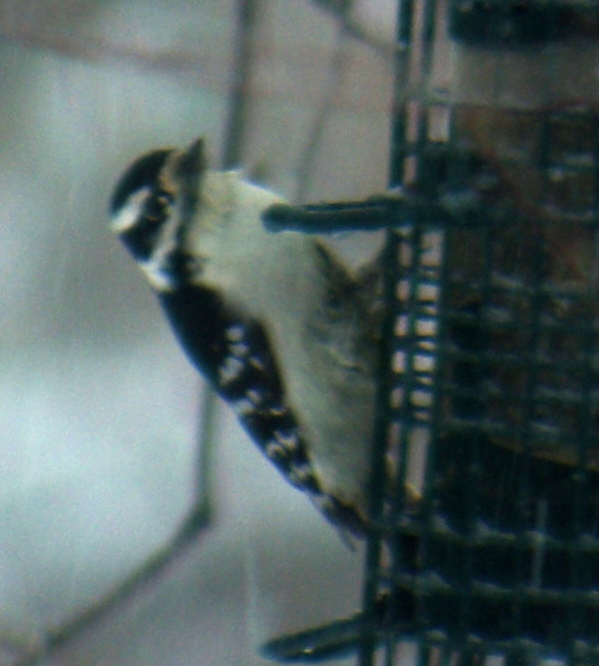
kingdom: Animalia
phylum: Chordata
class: Aves
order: Piciformes
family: Picidae
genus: Dryobates
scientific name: Dryobates pubescens
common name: Downy woodpecker
